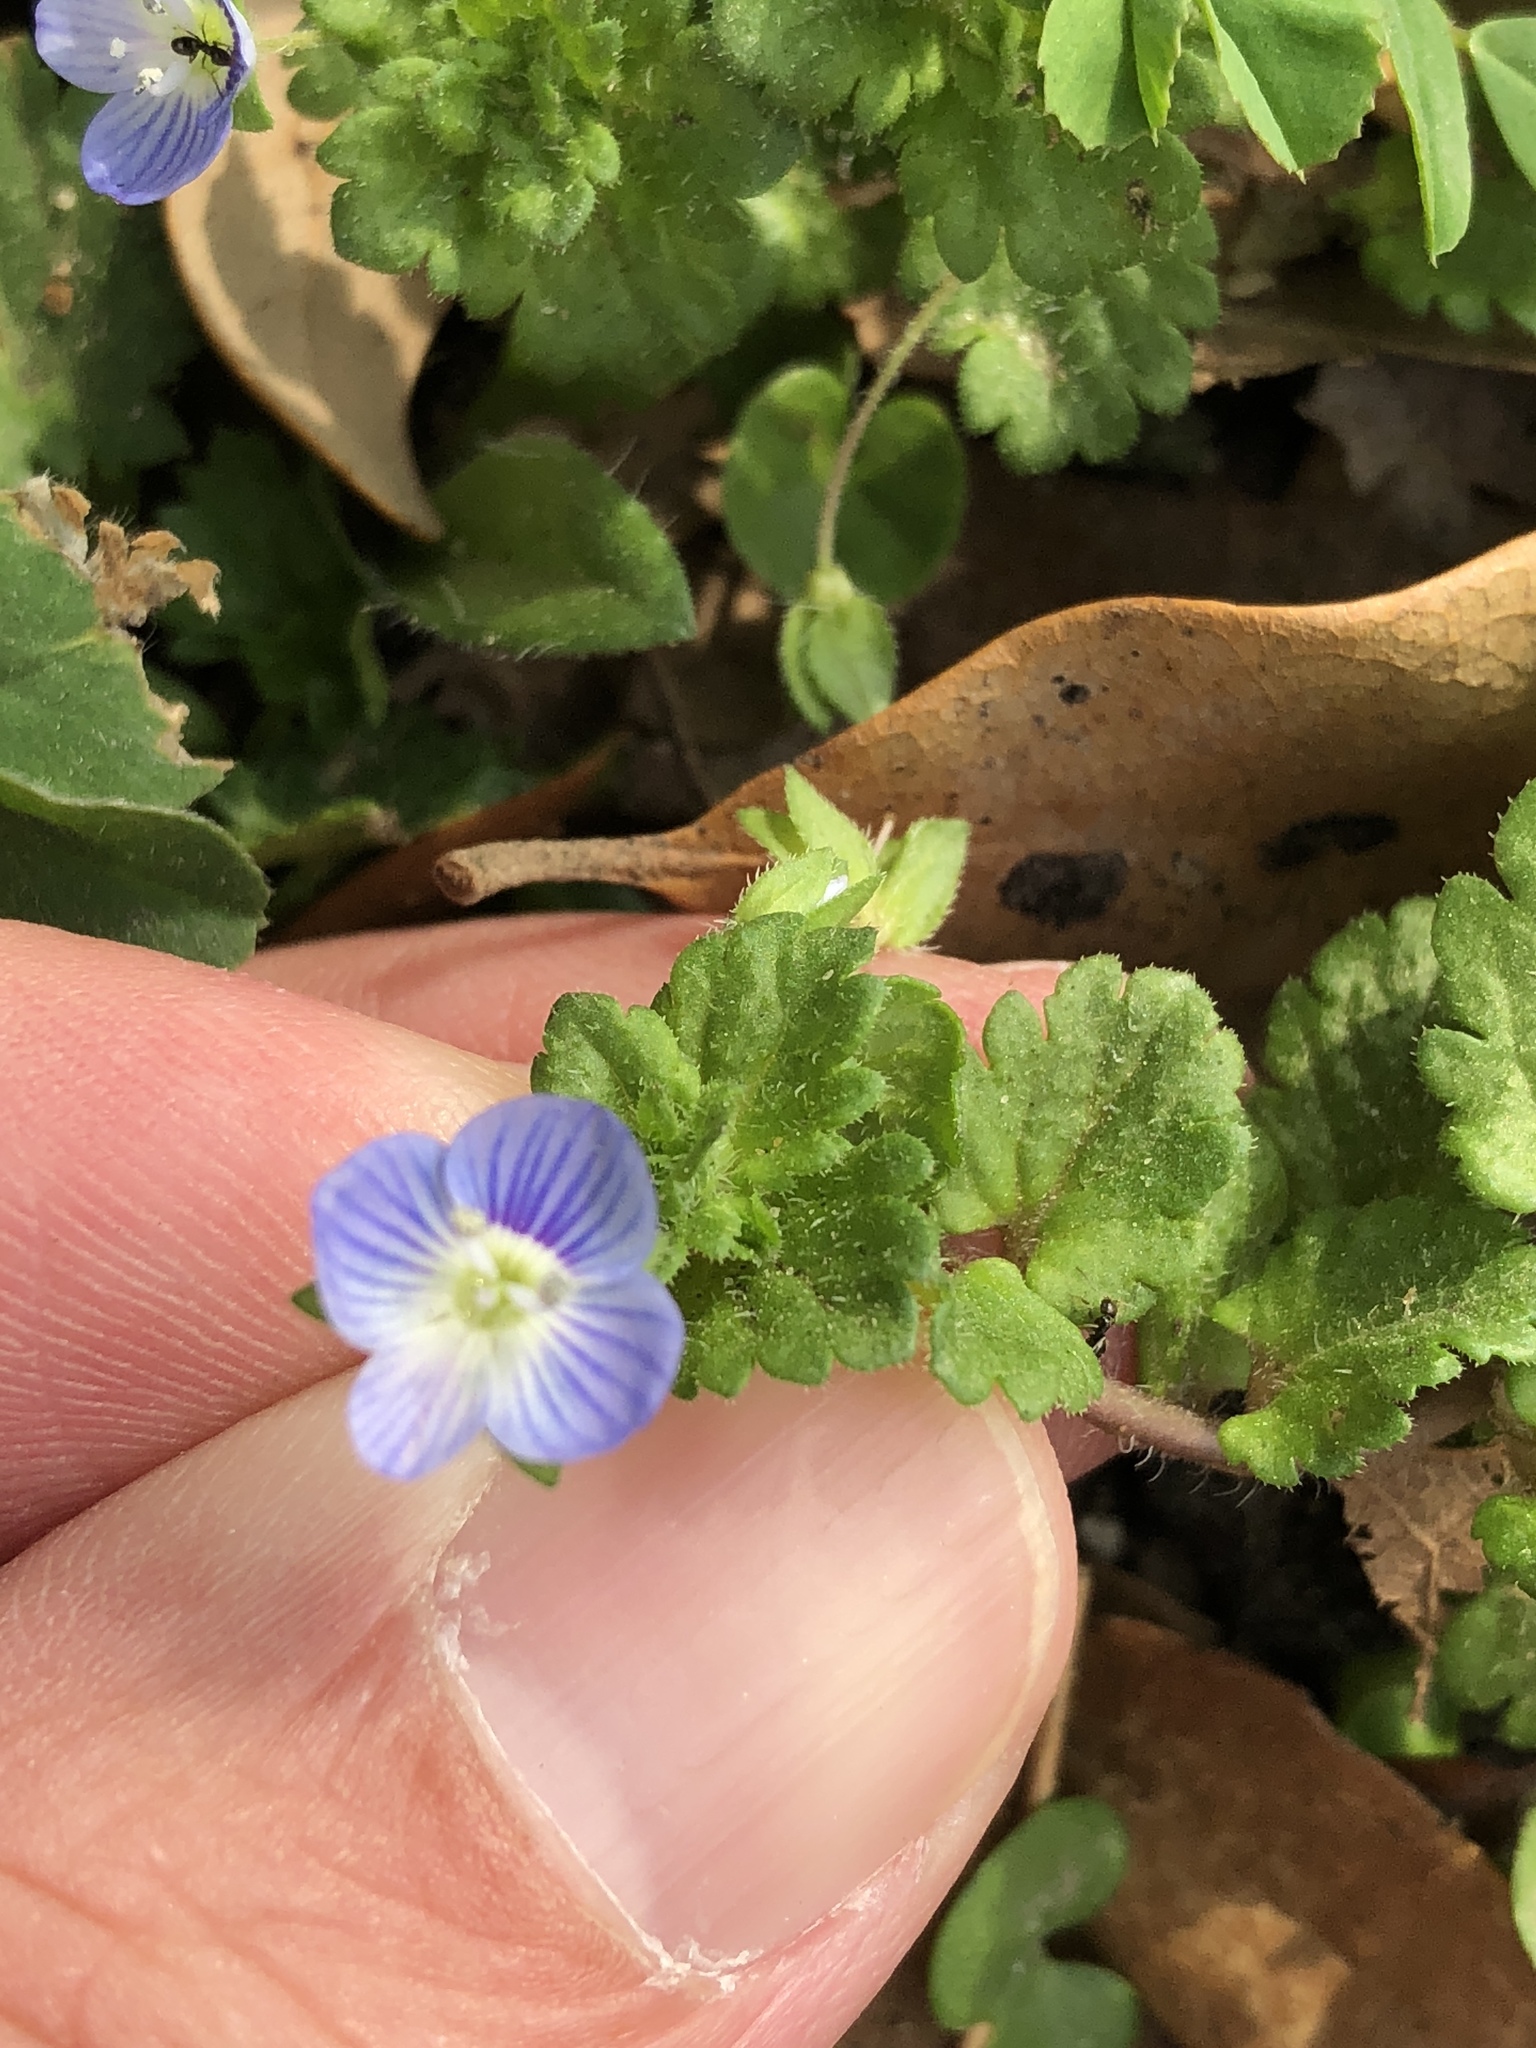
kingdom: Plantae
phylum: Tracheophyta
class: Magnoliopsida
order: Lamiales
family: Plantaginaceae
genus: Veronica
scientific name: Veronica persica
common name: Common field-speedwell
